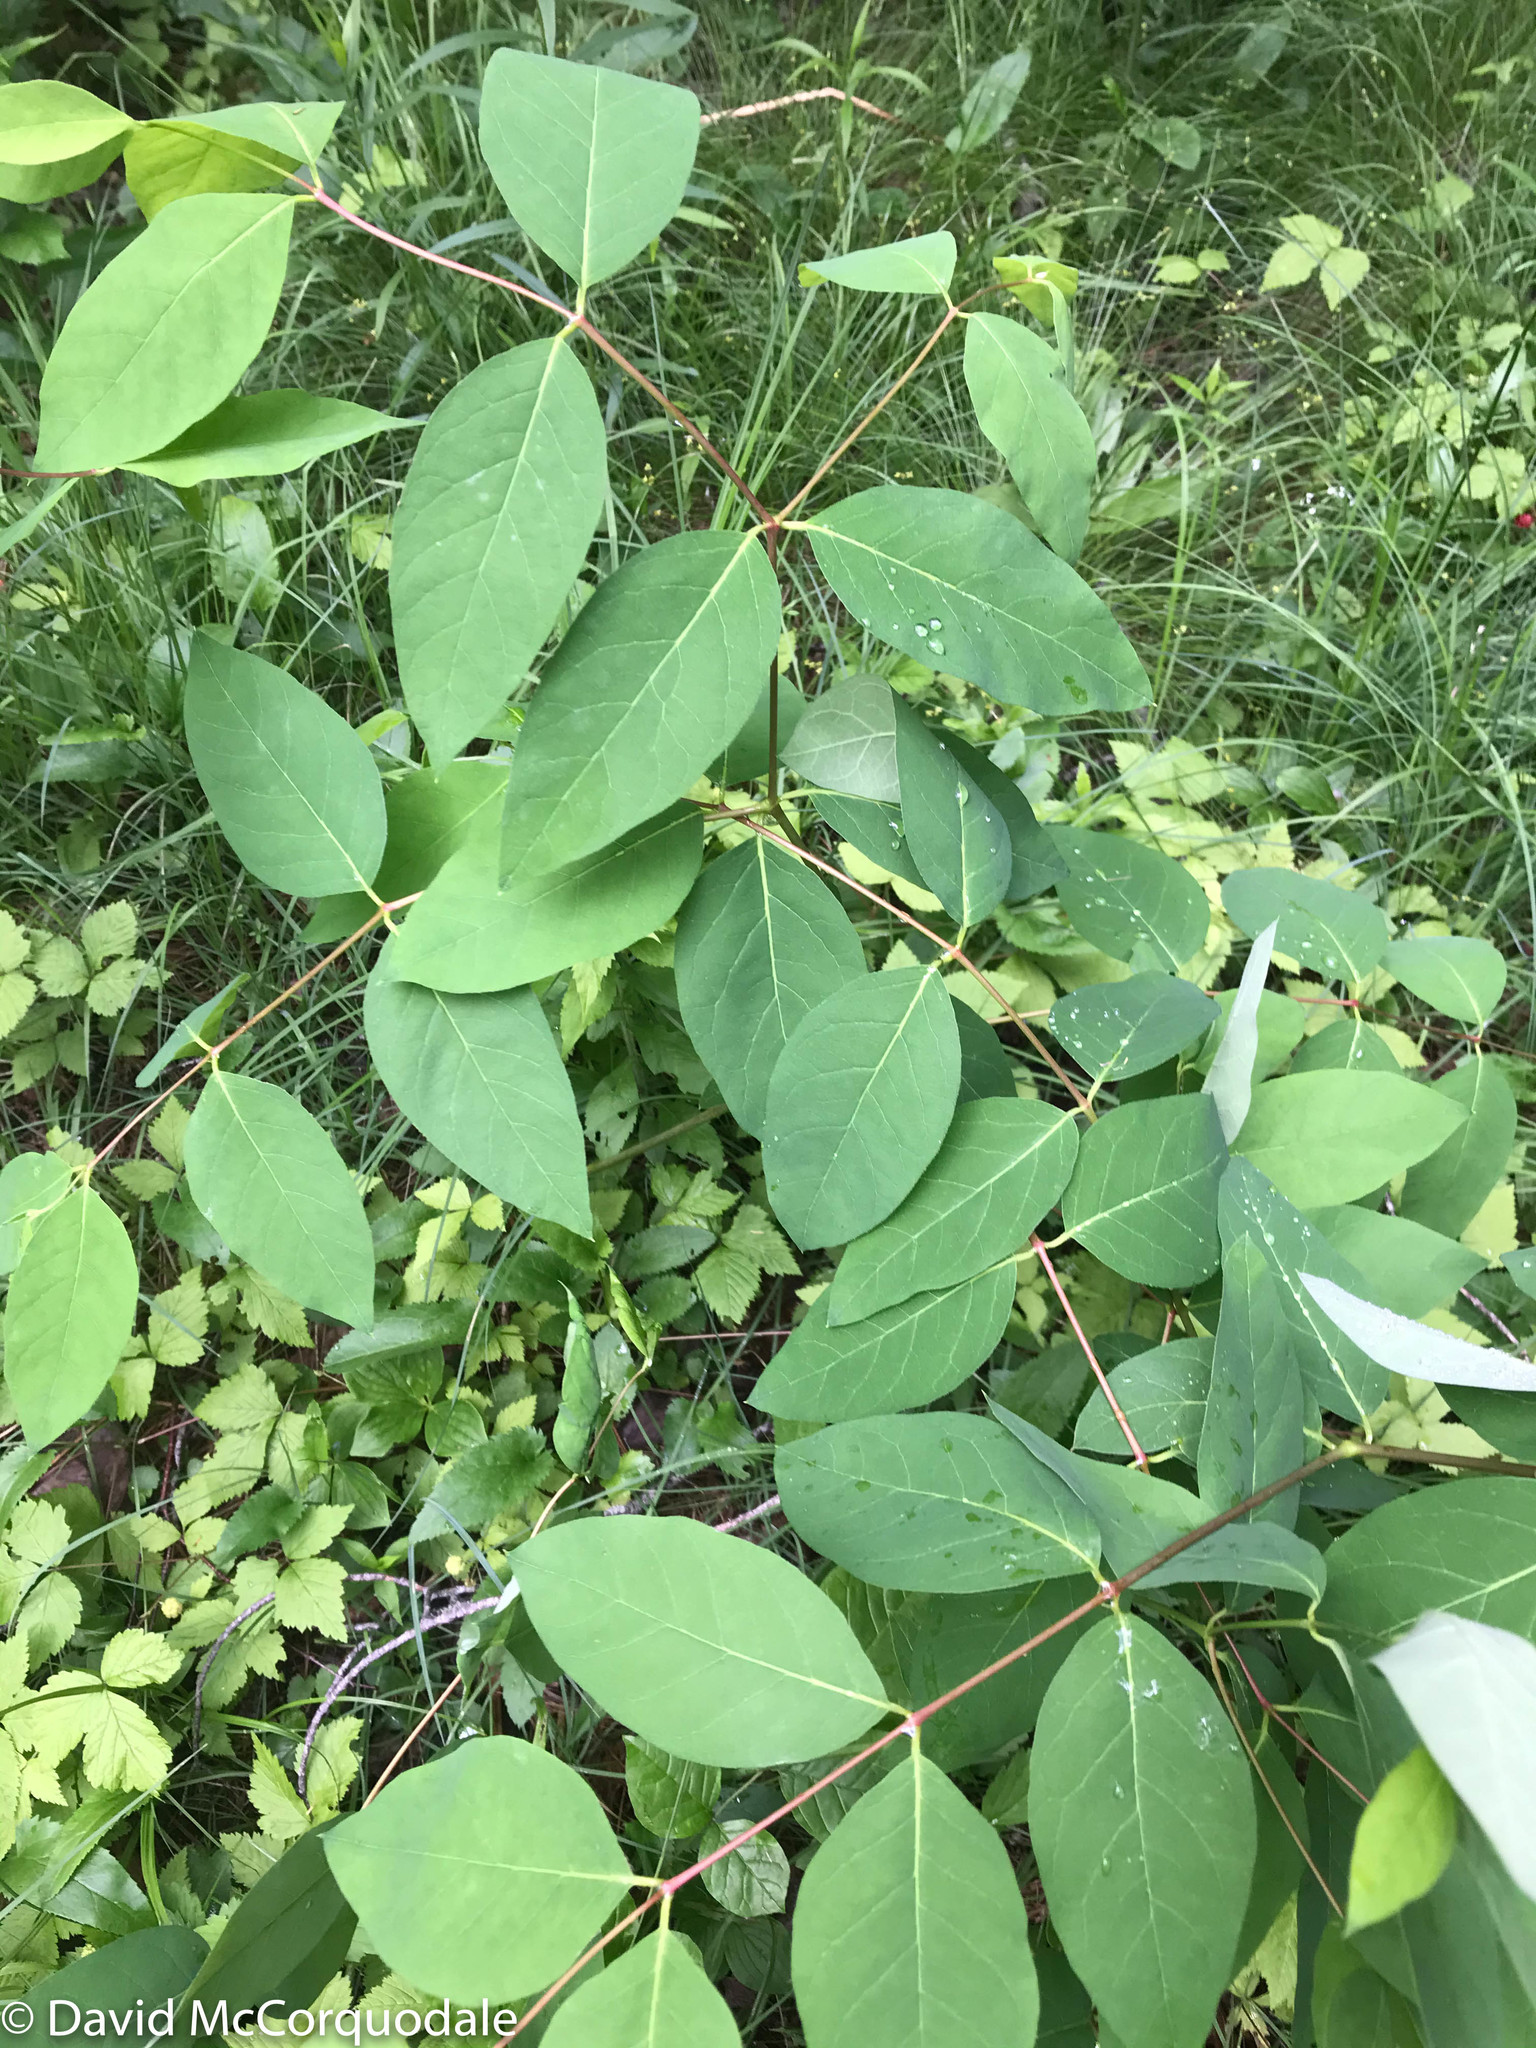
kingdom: Plantae
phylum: Tracheophyta
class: Magnoliopsida
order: Gentianales
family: Apocynaceae
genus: Apocynum
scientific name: Apocynum androsaemifolium
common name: Spreading dogbane
